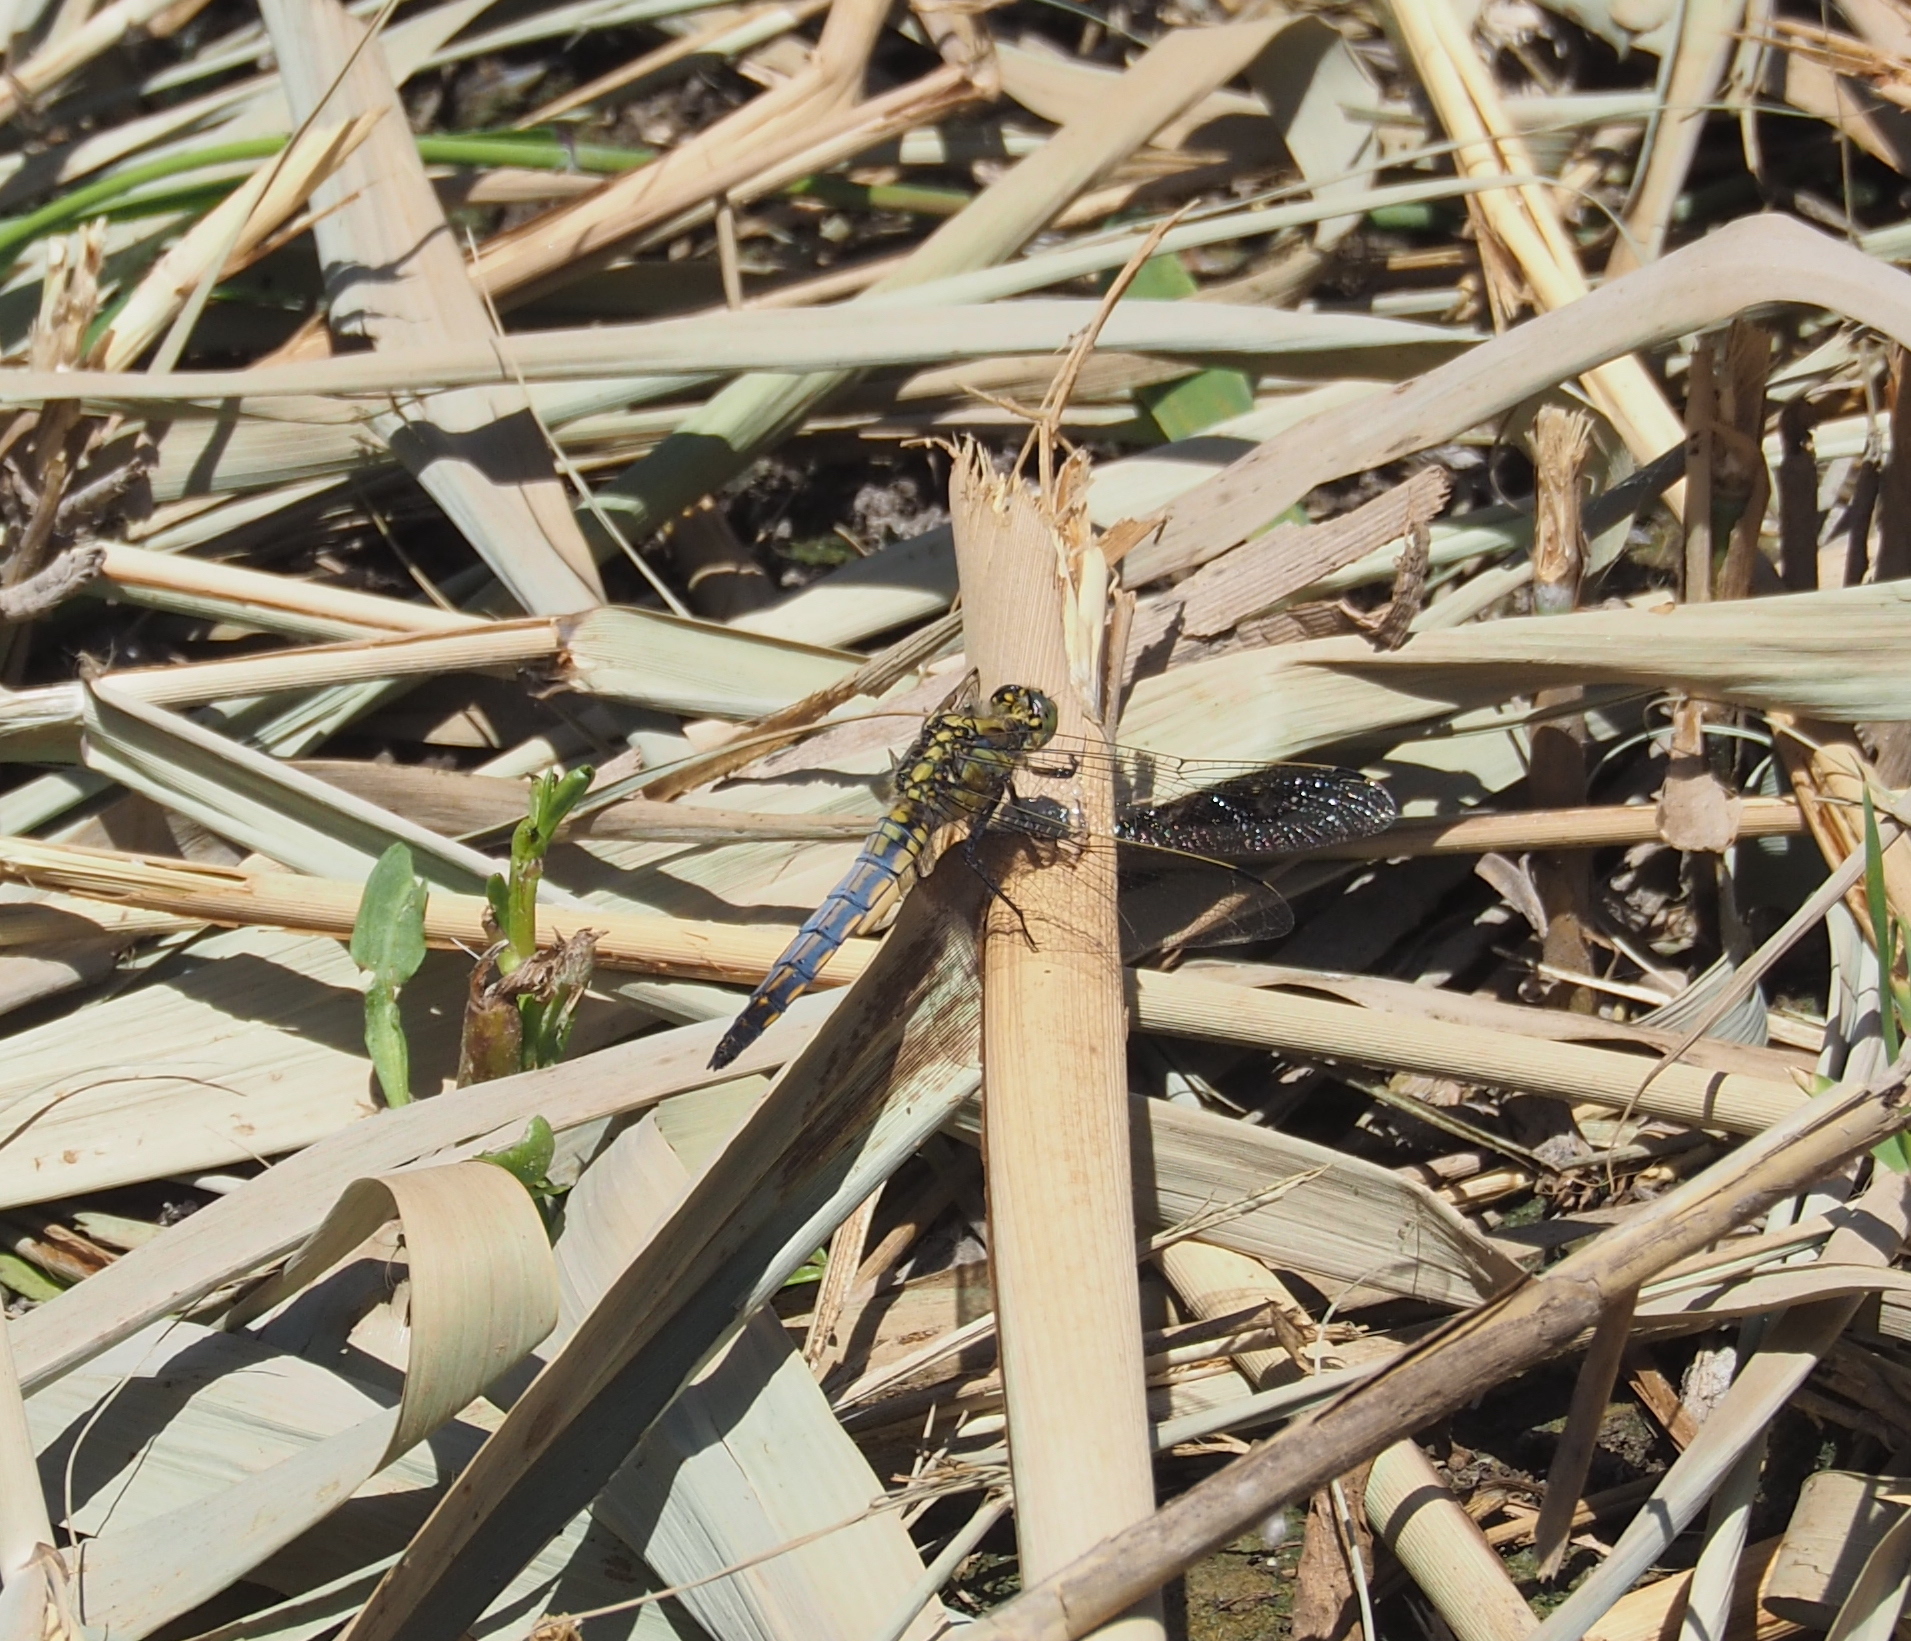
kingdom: Animalia
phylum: Arthropoda
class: Insecta
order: Odonata
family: Libellulidae
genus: Orthetrum
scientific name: Orthetrum cancellatum
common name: Black-tailed skimmer
